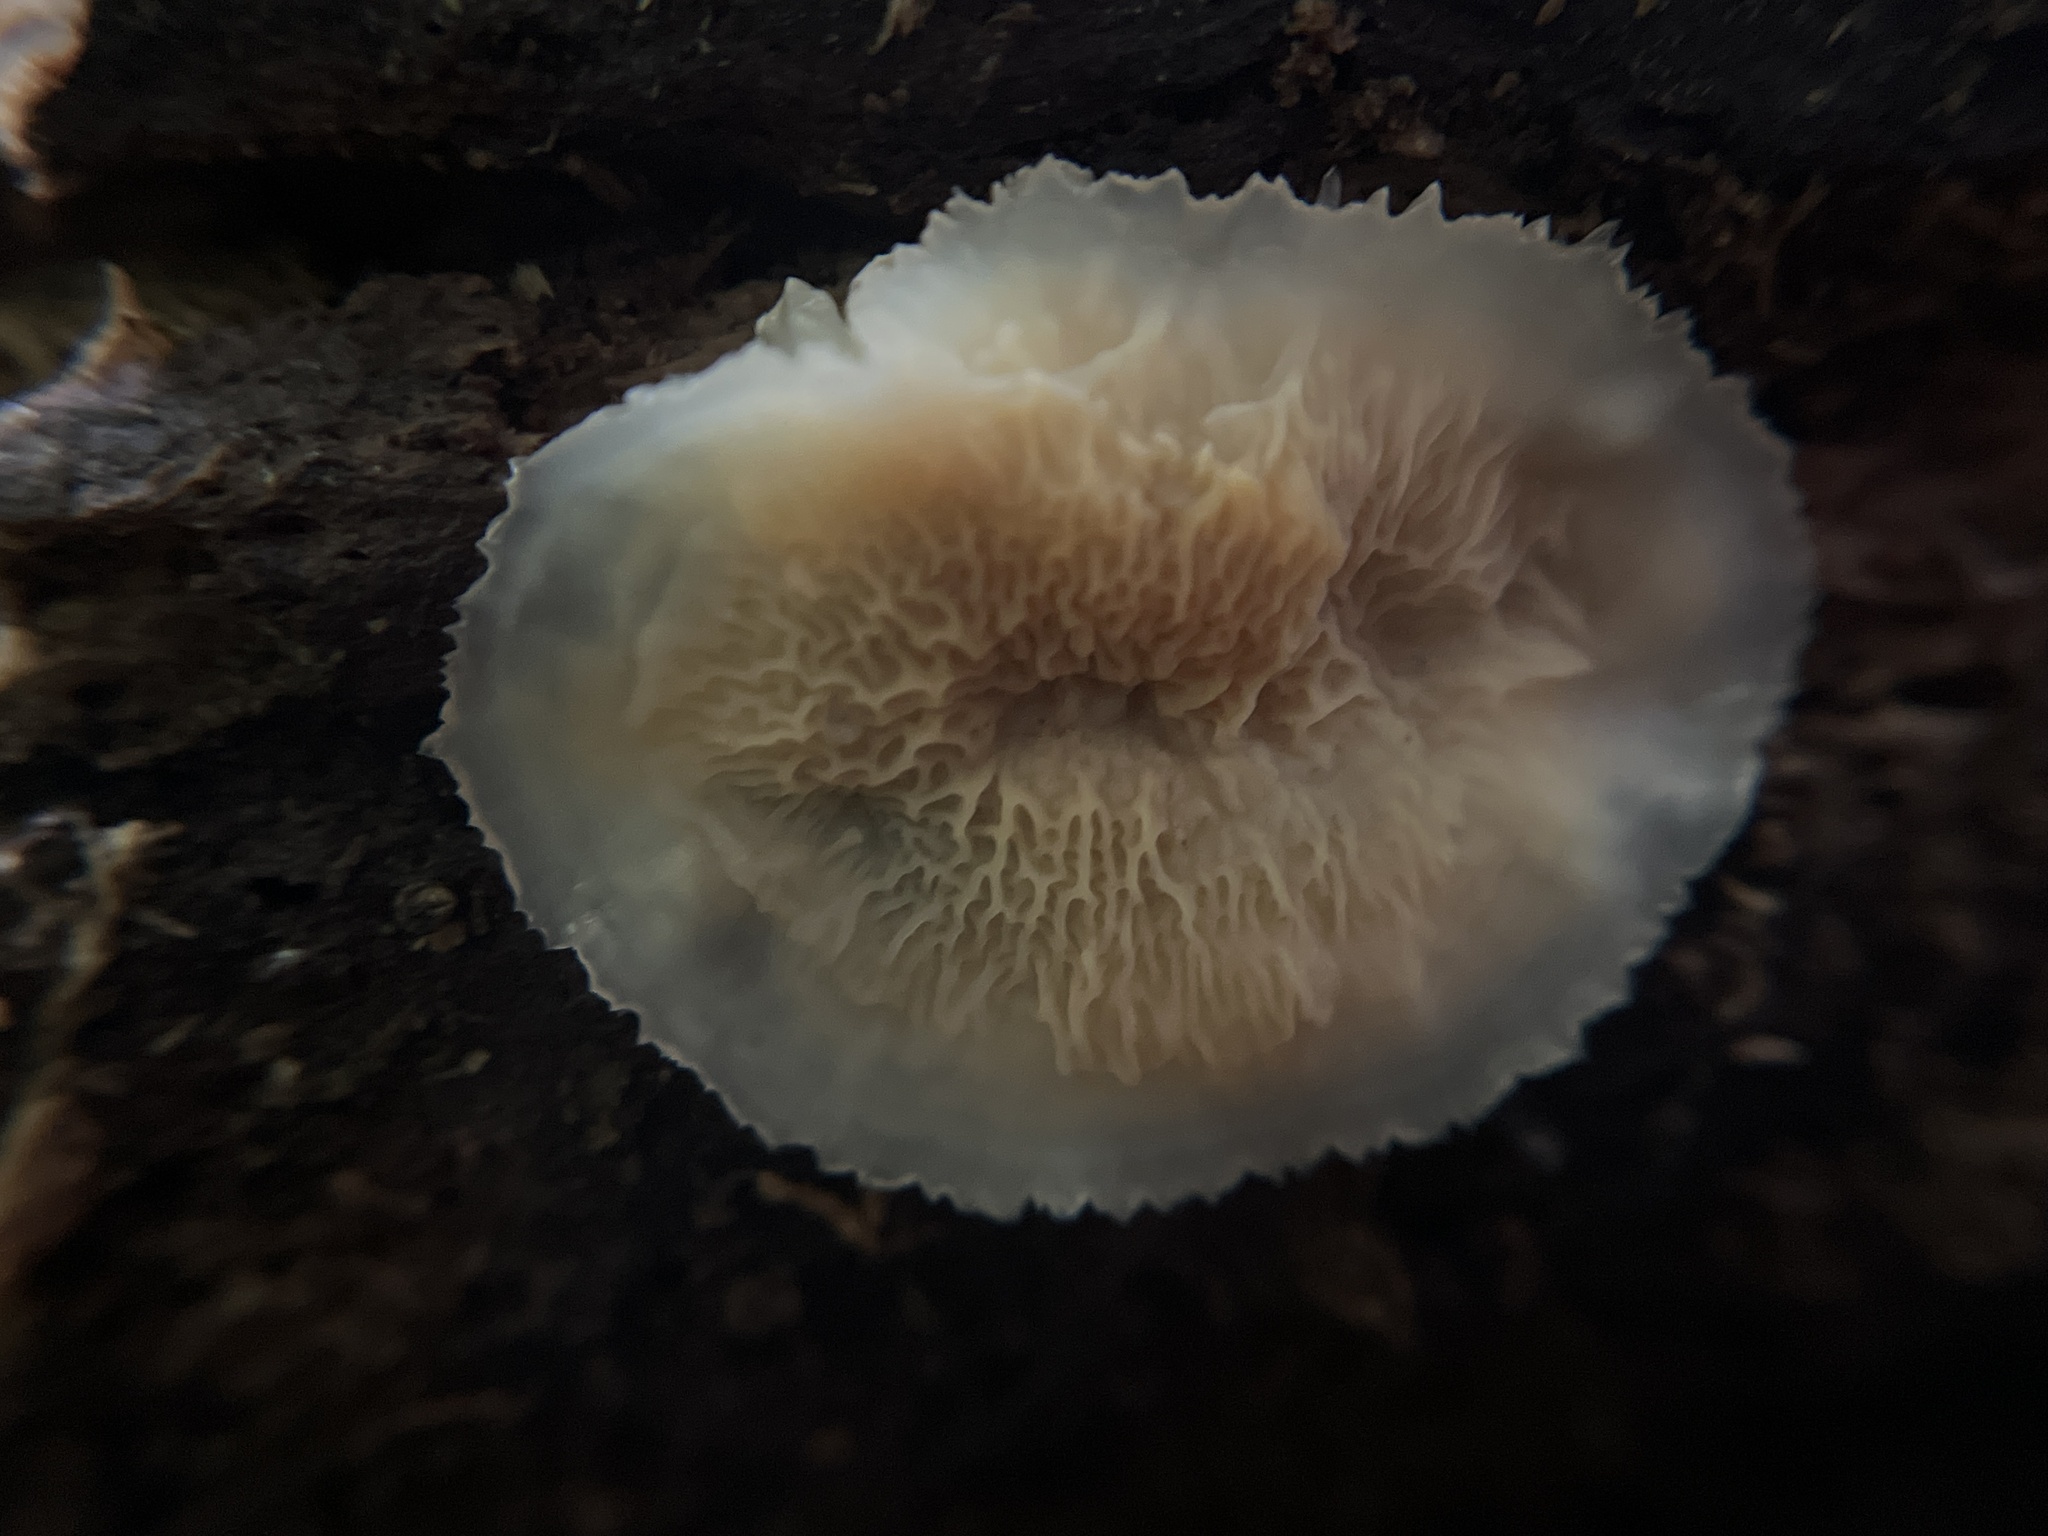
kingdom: Fungi
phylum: Basidiomycota
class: Agaricomycetes
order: Polyporales
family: Meruliaceae
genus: Phlebia
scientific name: Phlebia tremellosa
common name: Jelly rot
